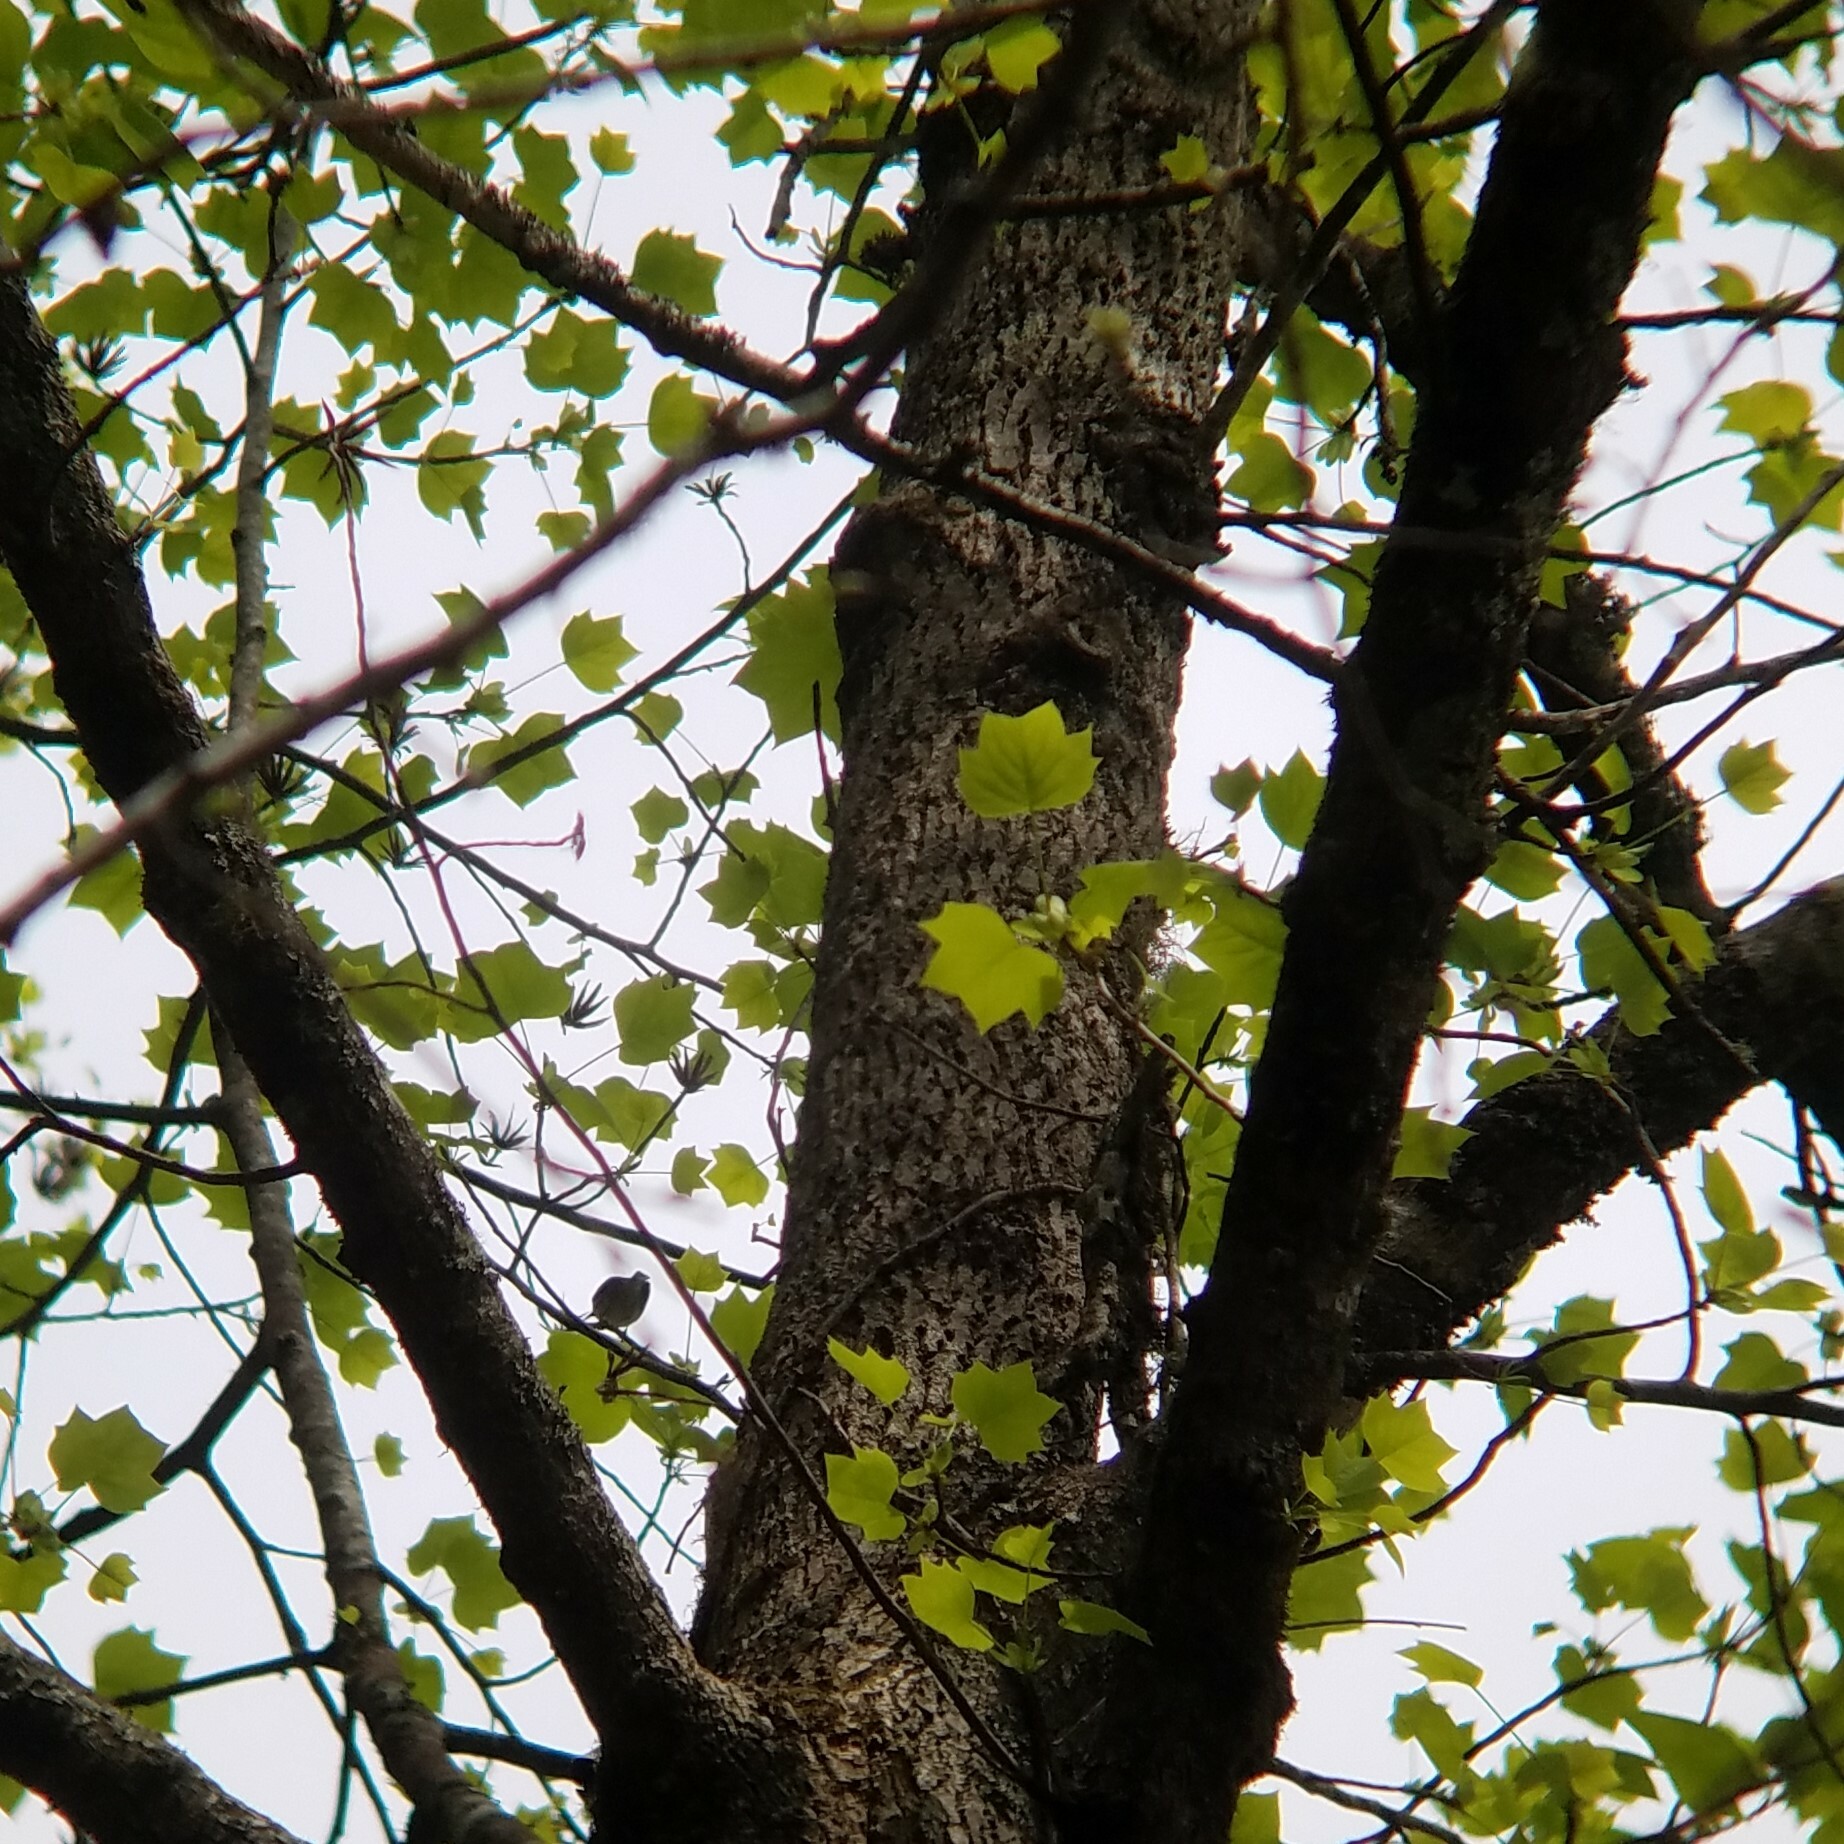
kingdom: Plantae
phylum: Tracheophyta
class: Magnoliopsida
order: Magnoliales
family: Magnoliaceae
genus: Liriodendron
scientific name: Liriodendron tulipifera
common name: Tulip tree
